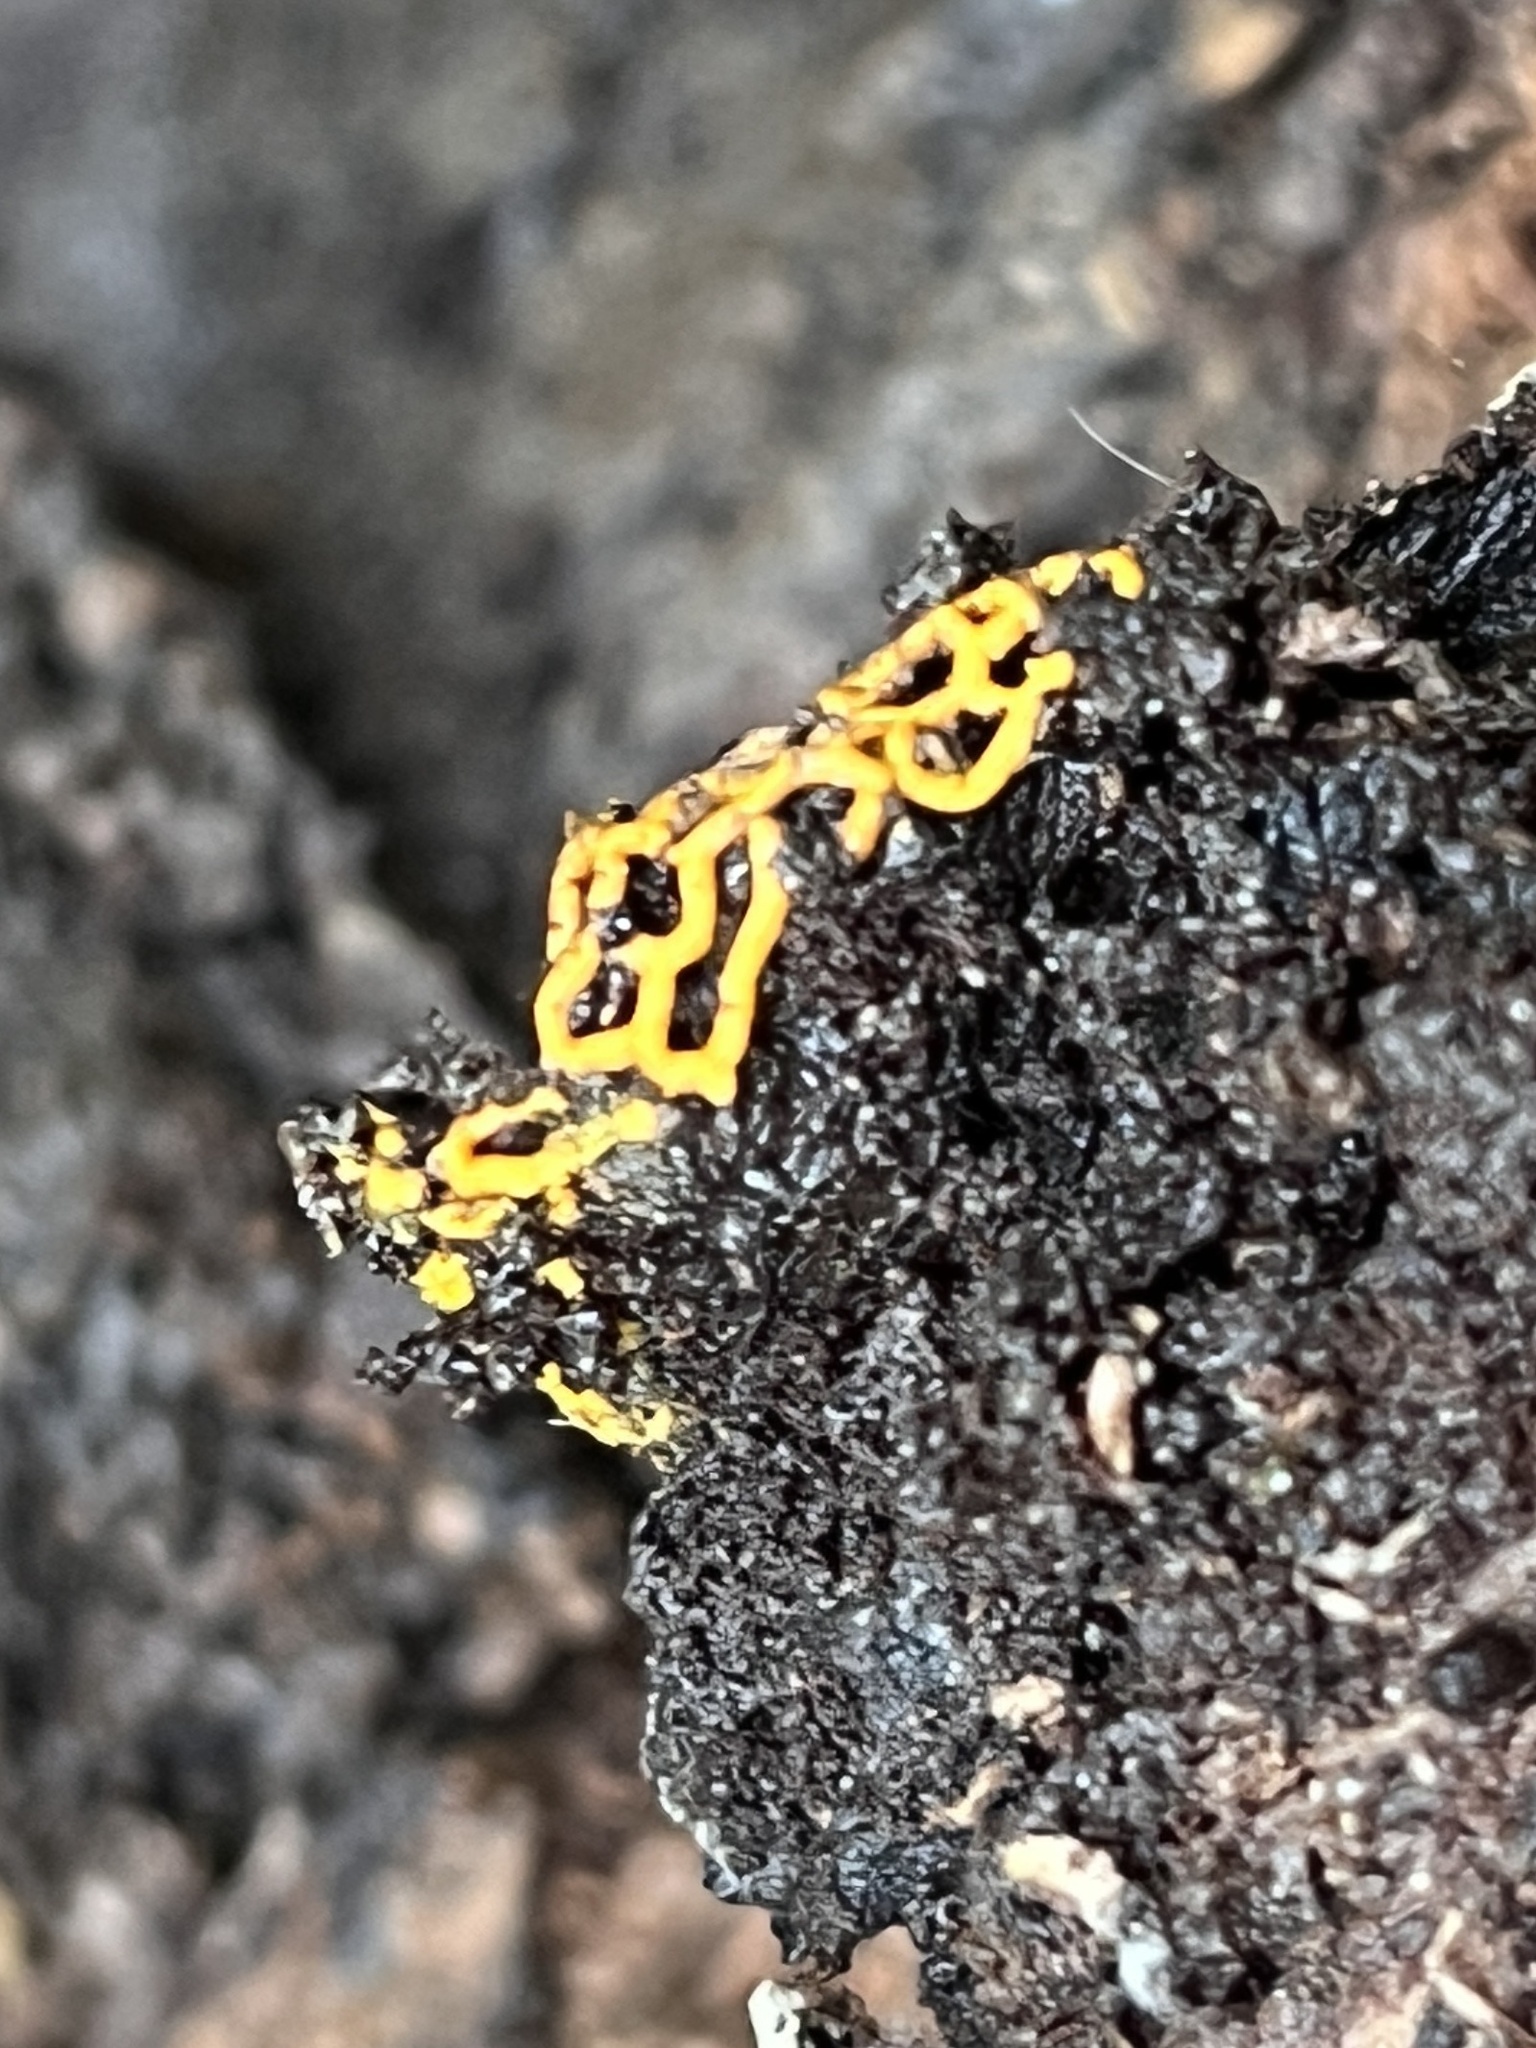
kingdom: Protozoa
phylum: Mycetozoa
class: Myxomycetes
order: Trichiales
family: Arcyriaceae
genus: Hemitrichia
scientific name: Hemitrichia serpula
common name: Pretzel slime mold
